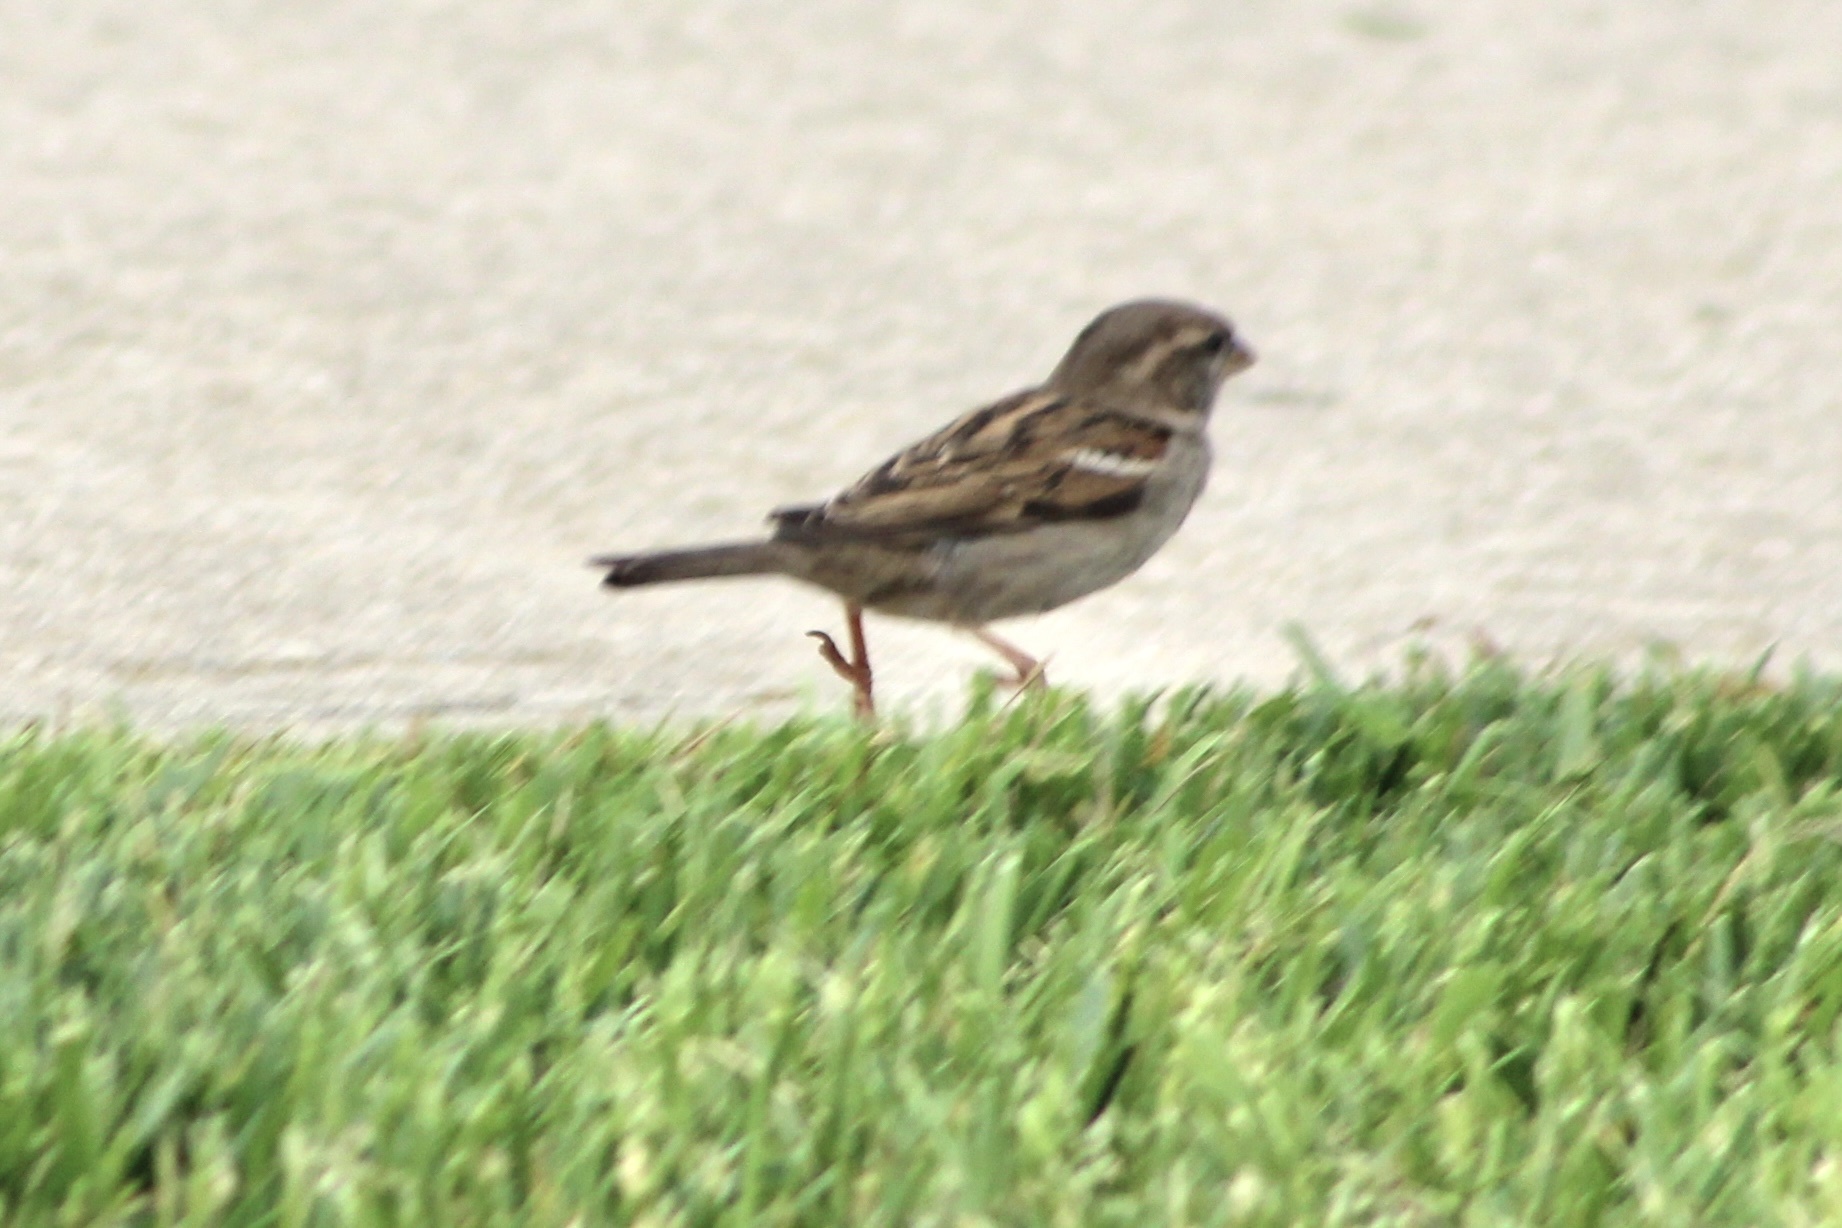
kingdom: Animalia
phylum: Chordata
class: Aves
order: Passeriformes
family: Passeridae
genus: Passer
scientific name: Passer domesticus
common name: House sparrow
